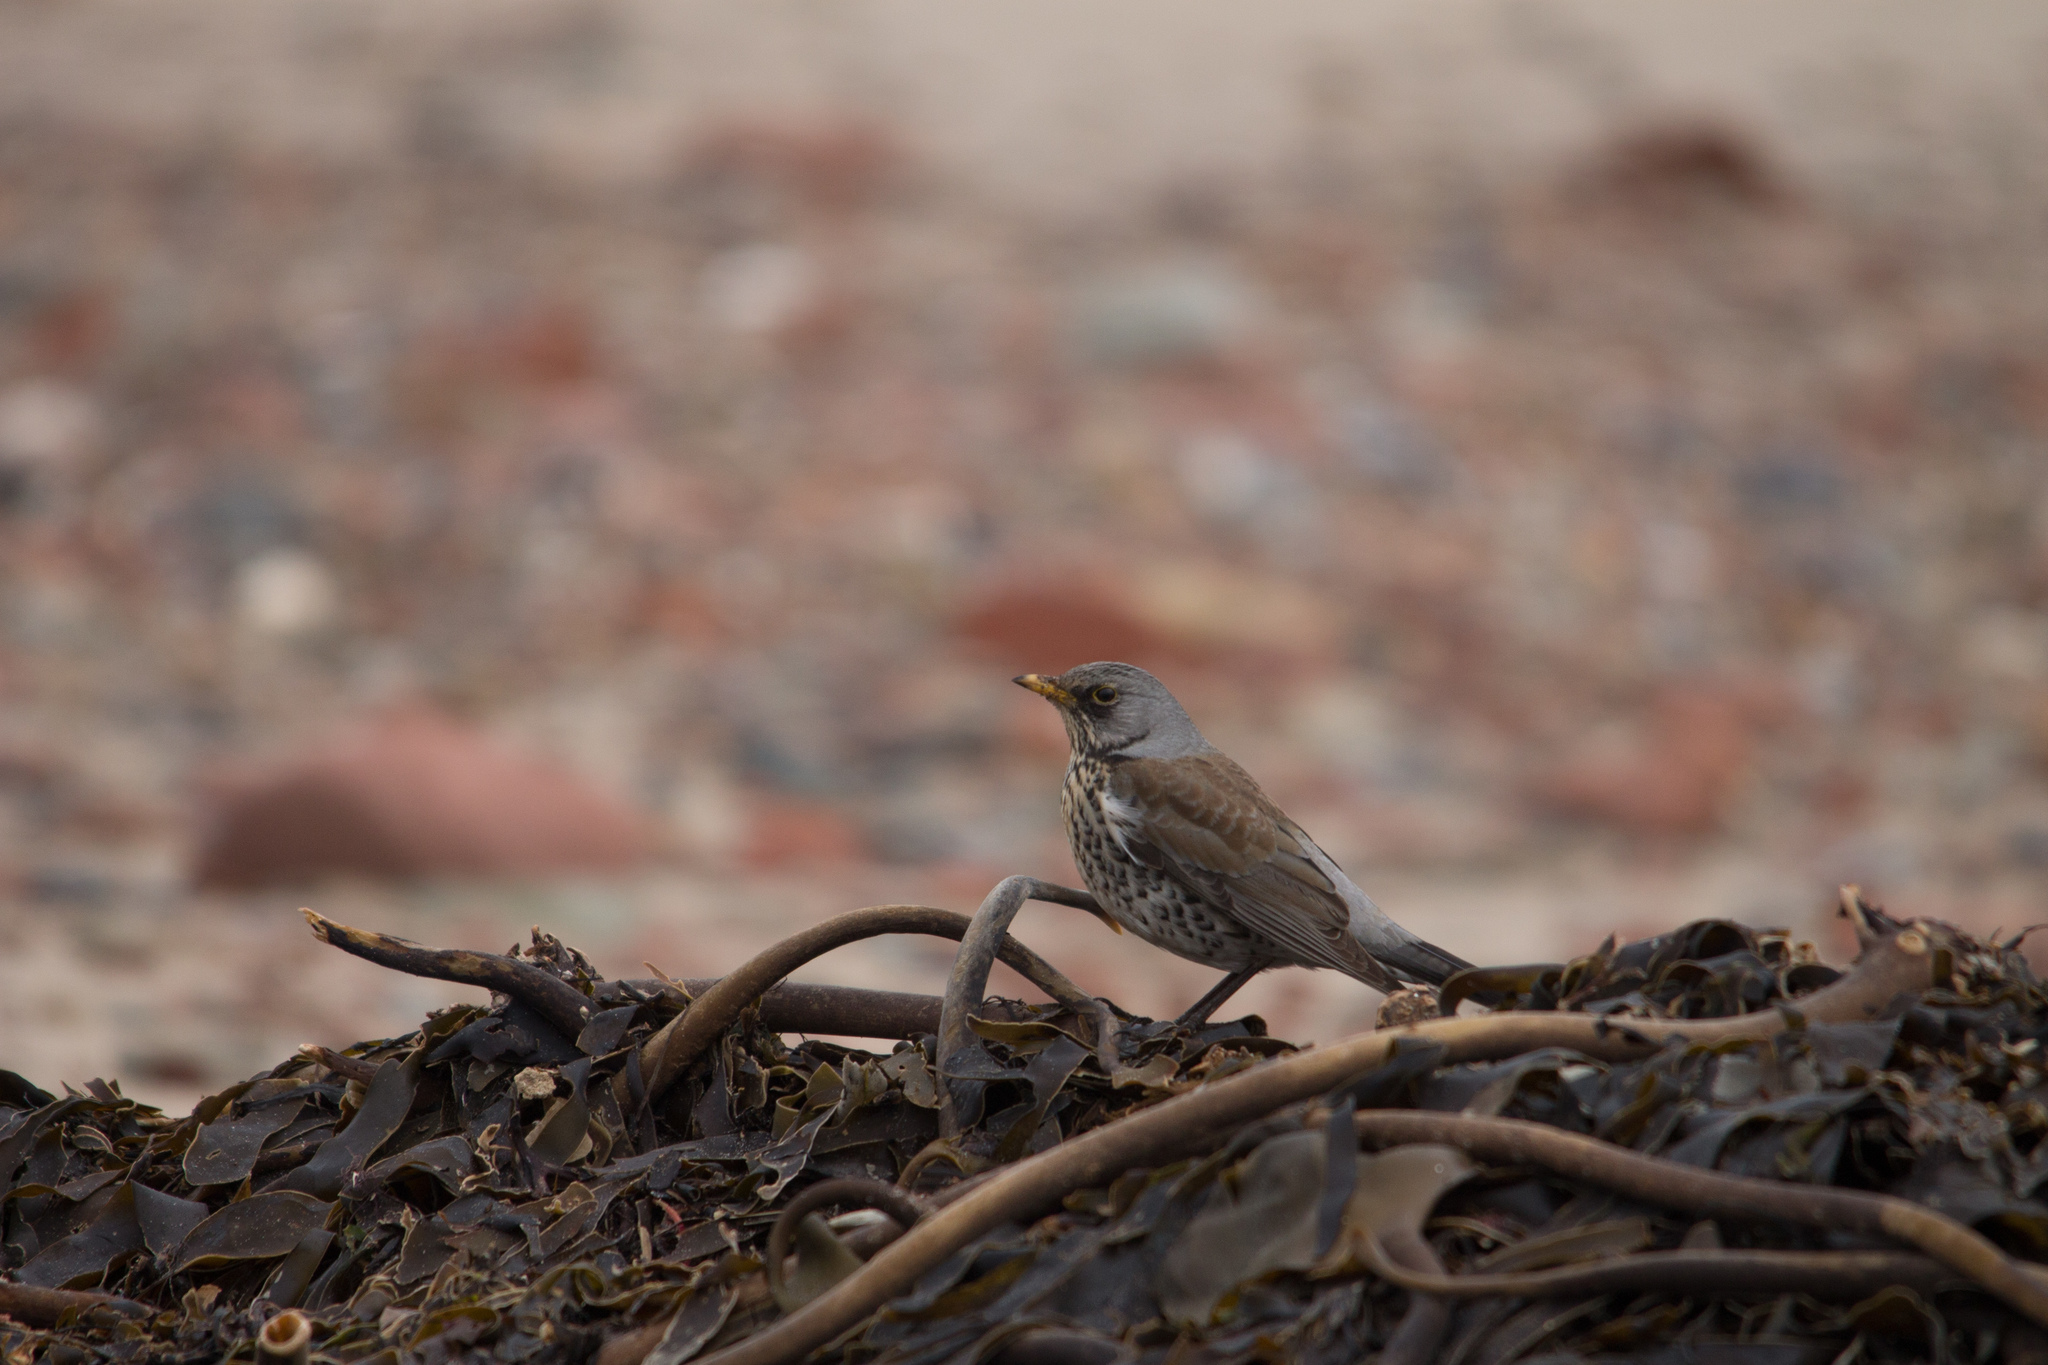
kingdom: Animalia
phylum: Chordata
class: Aves
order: Passeriformes
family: Turdidae
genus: Turdus
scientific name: Turdus pilaris
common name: Fieldfare
